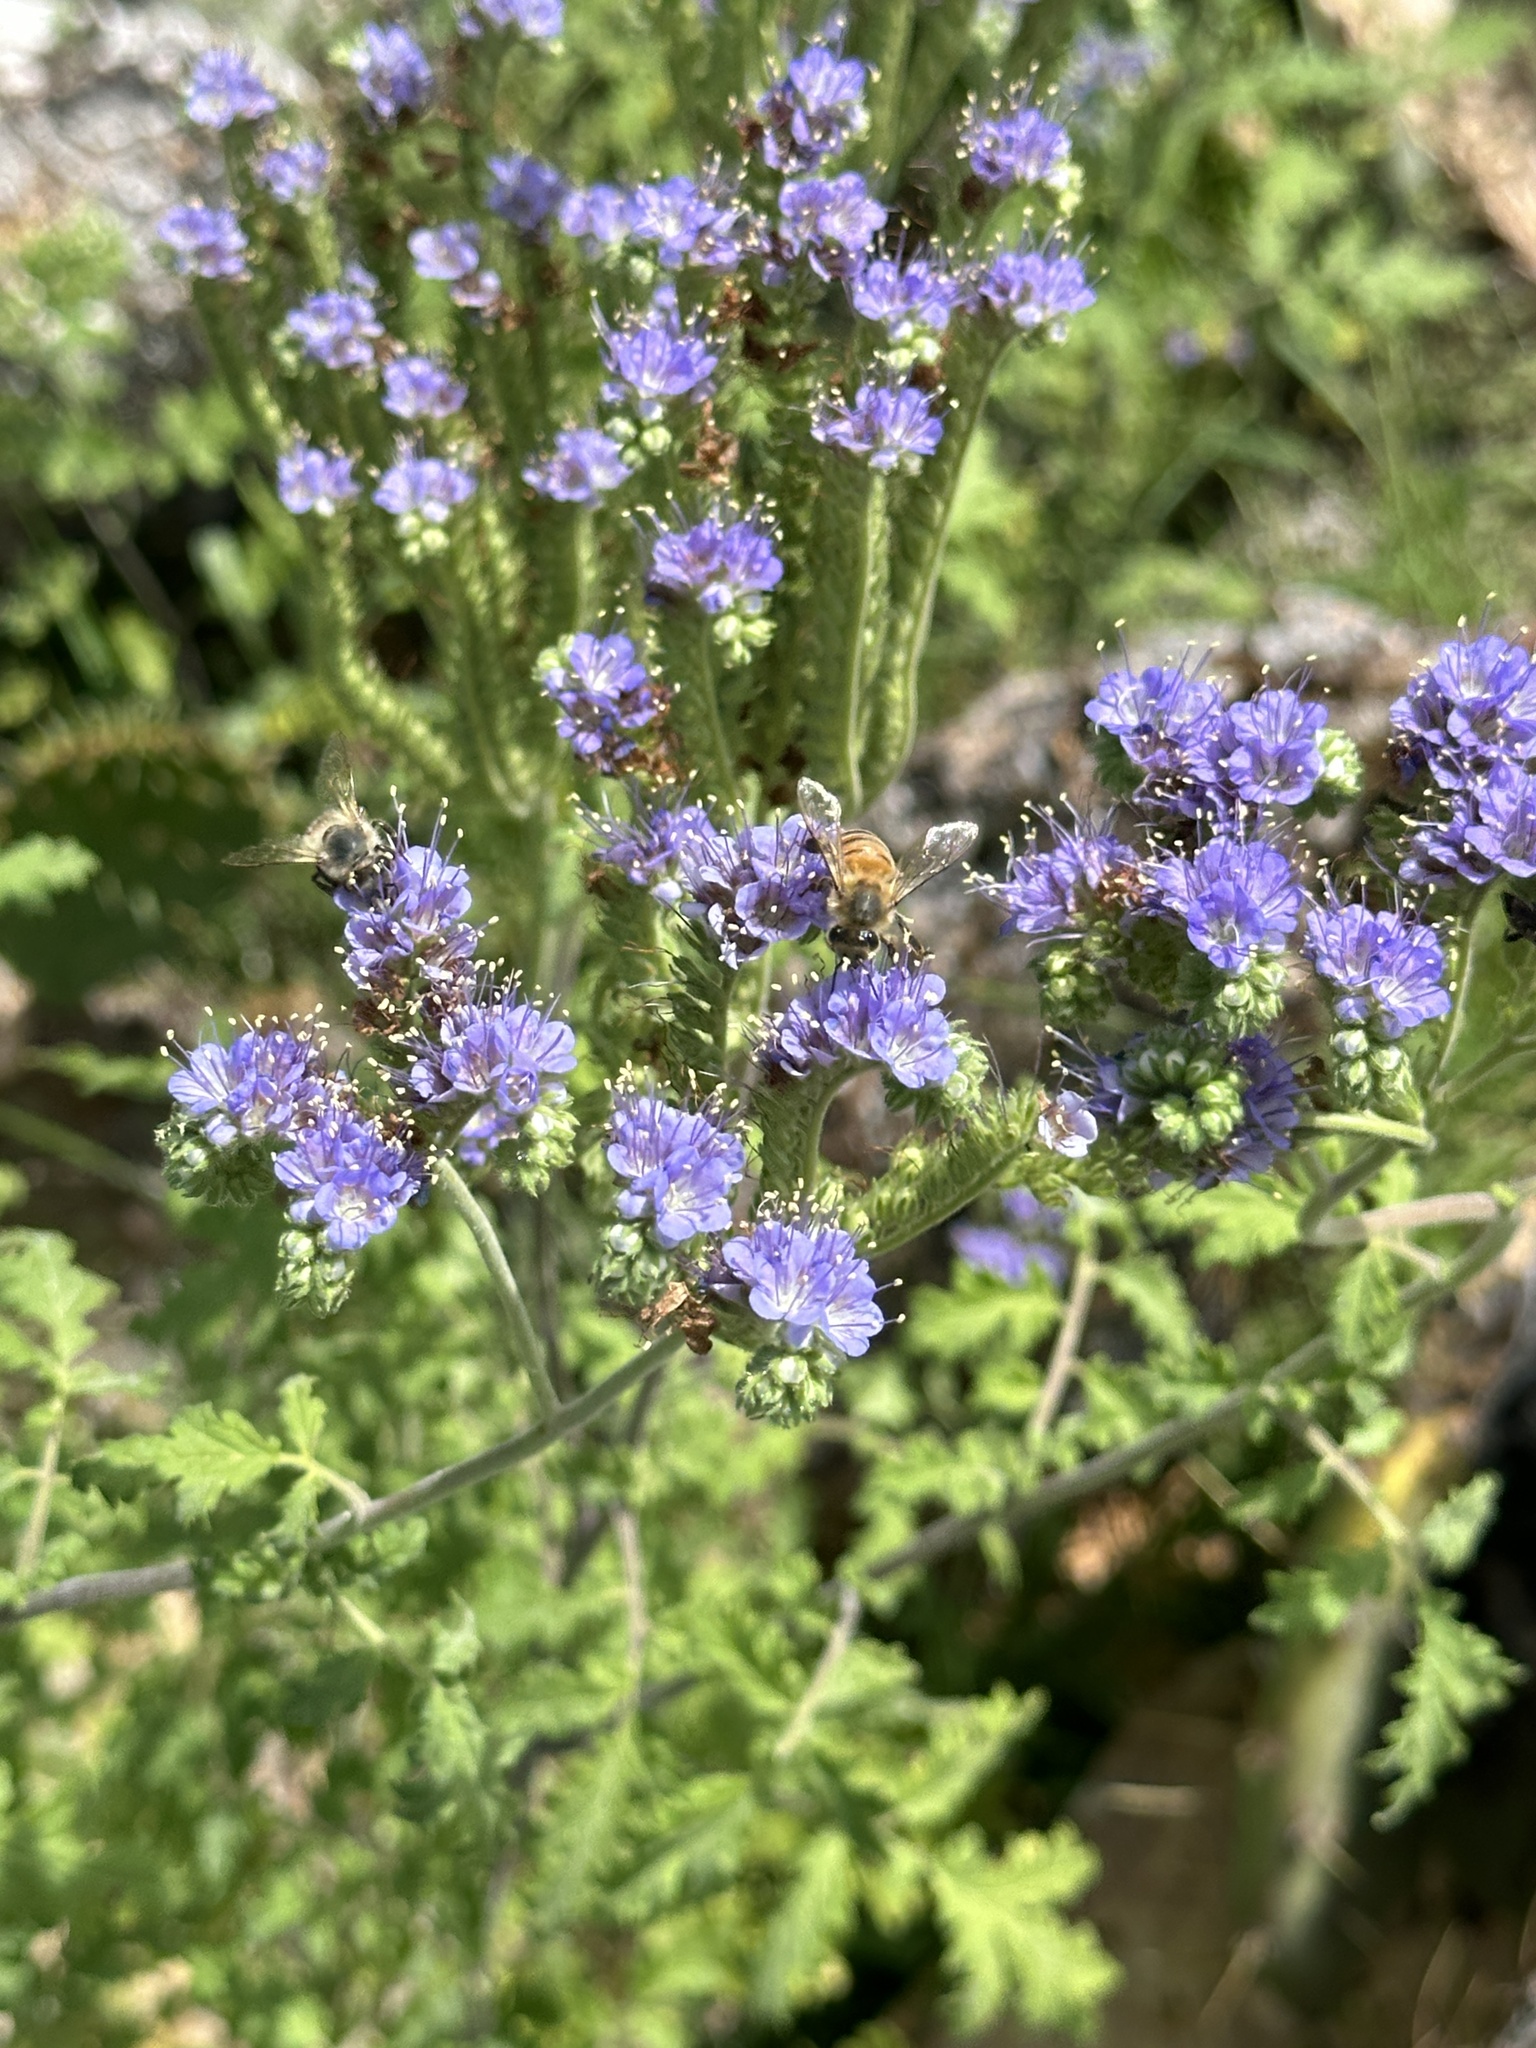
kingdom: Plantae
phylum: Tracheophyta
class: Magnoliopsida
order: Boraginales
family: Hydrophyllaceae
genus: Phacelia
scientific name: Phacelia congesta
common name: Blue curls
